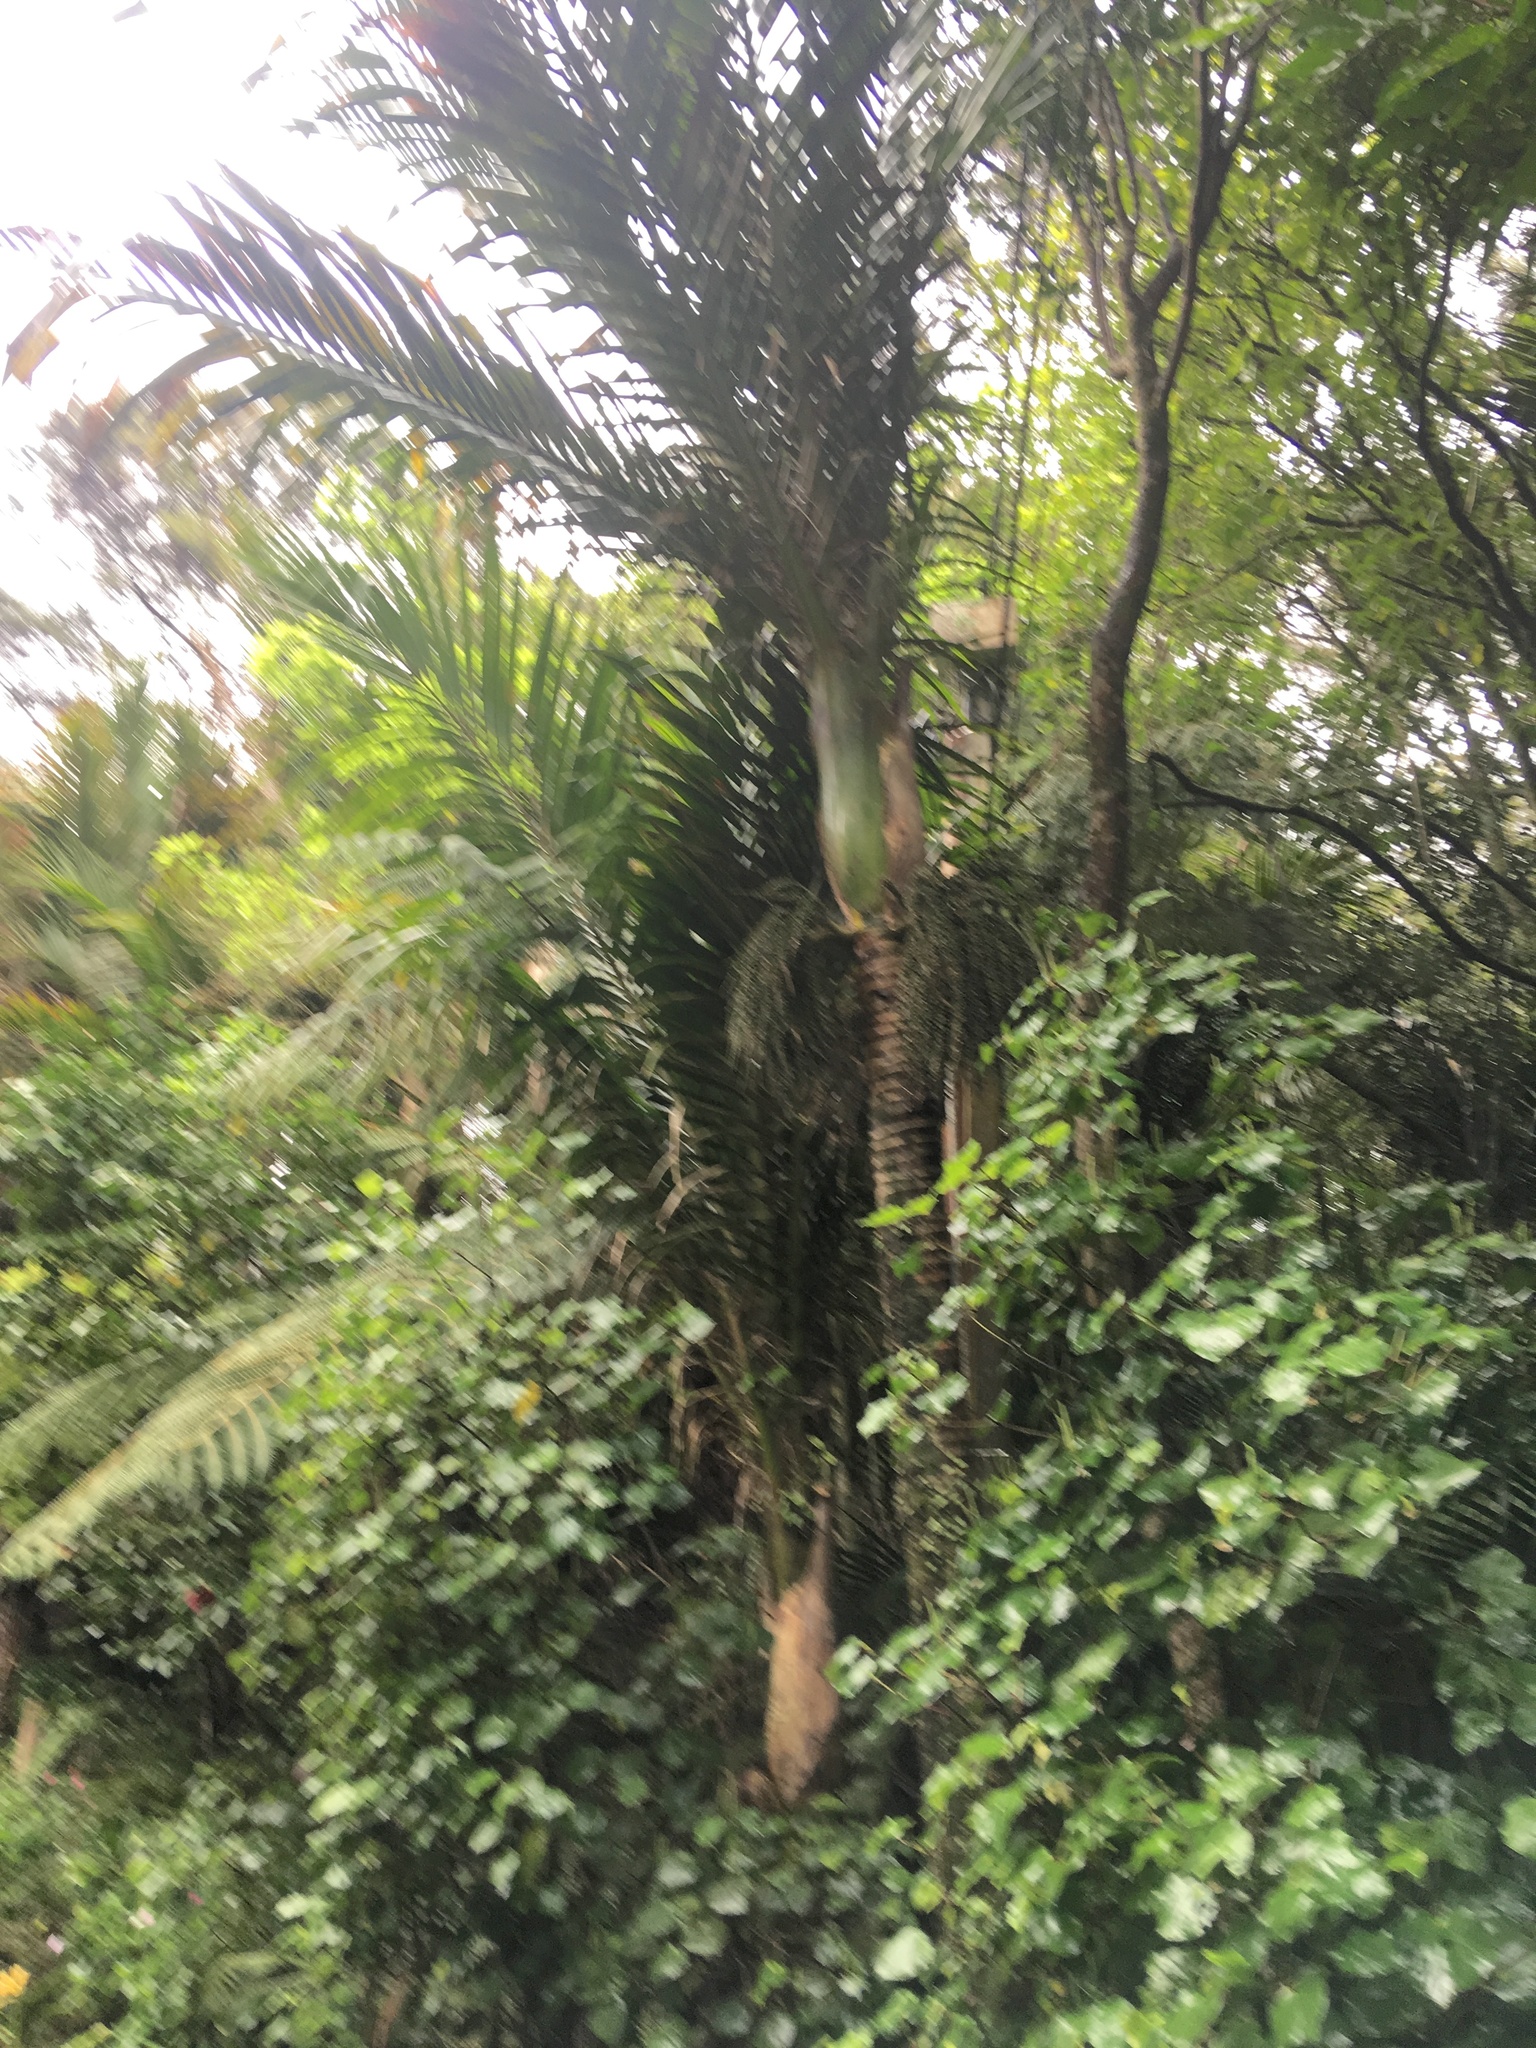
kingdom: Plantae
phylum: Tracheophyta
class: Magnoliopsida
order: Piperales
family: Piperaceae
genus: Macropiper
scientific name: Macropiper excelsum
